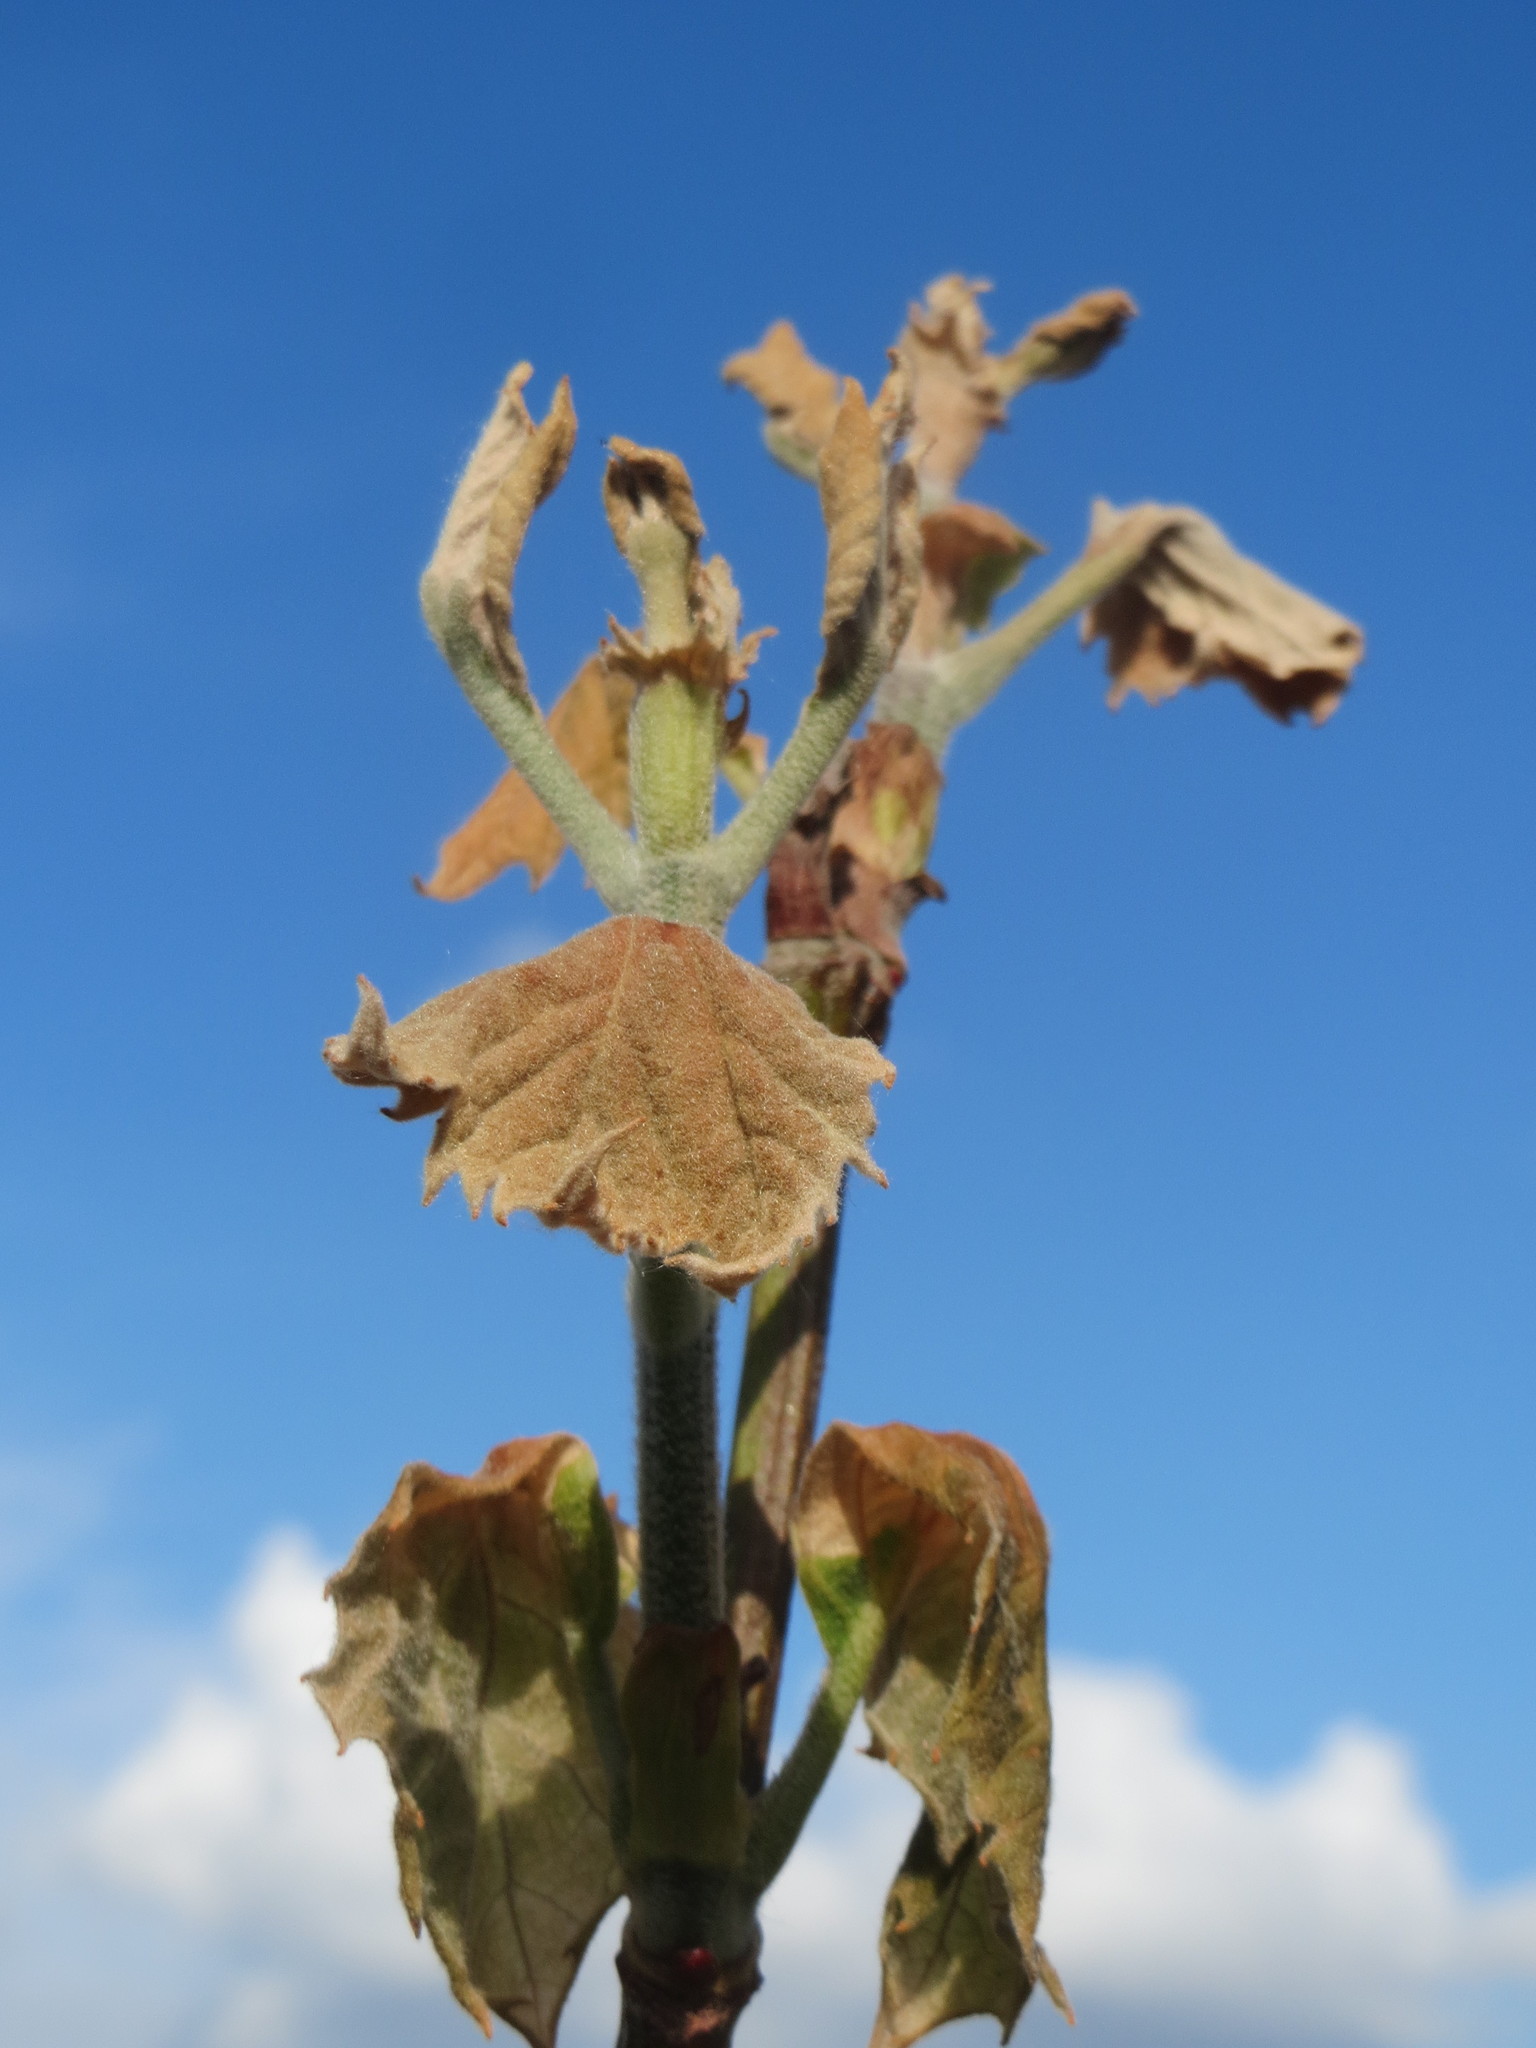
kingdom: Plantae
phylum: Tracheophyta
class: Magnoliopsida
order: Proteales
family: Platanaceae
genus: Platanus
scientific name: Platanus hispanica
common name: London plane
